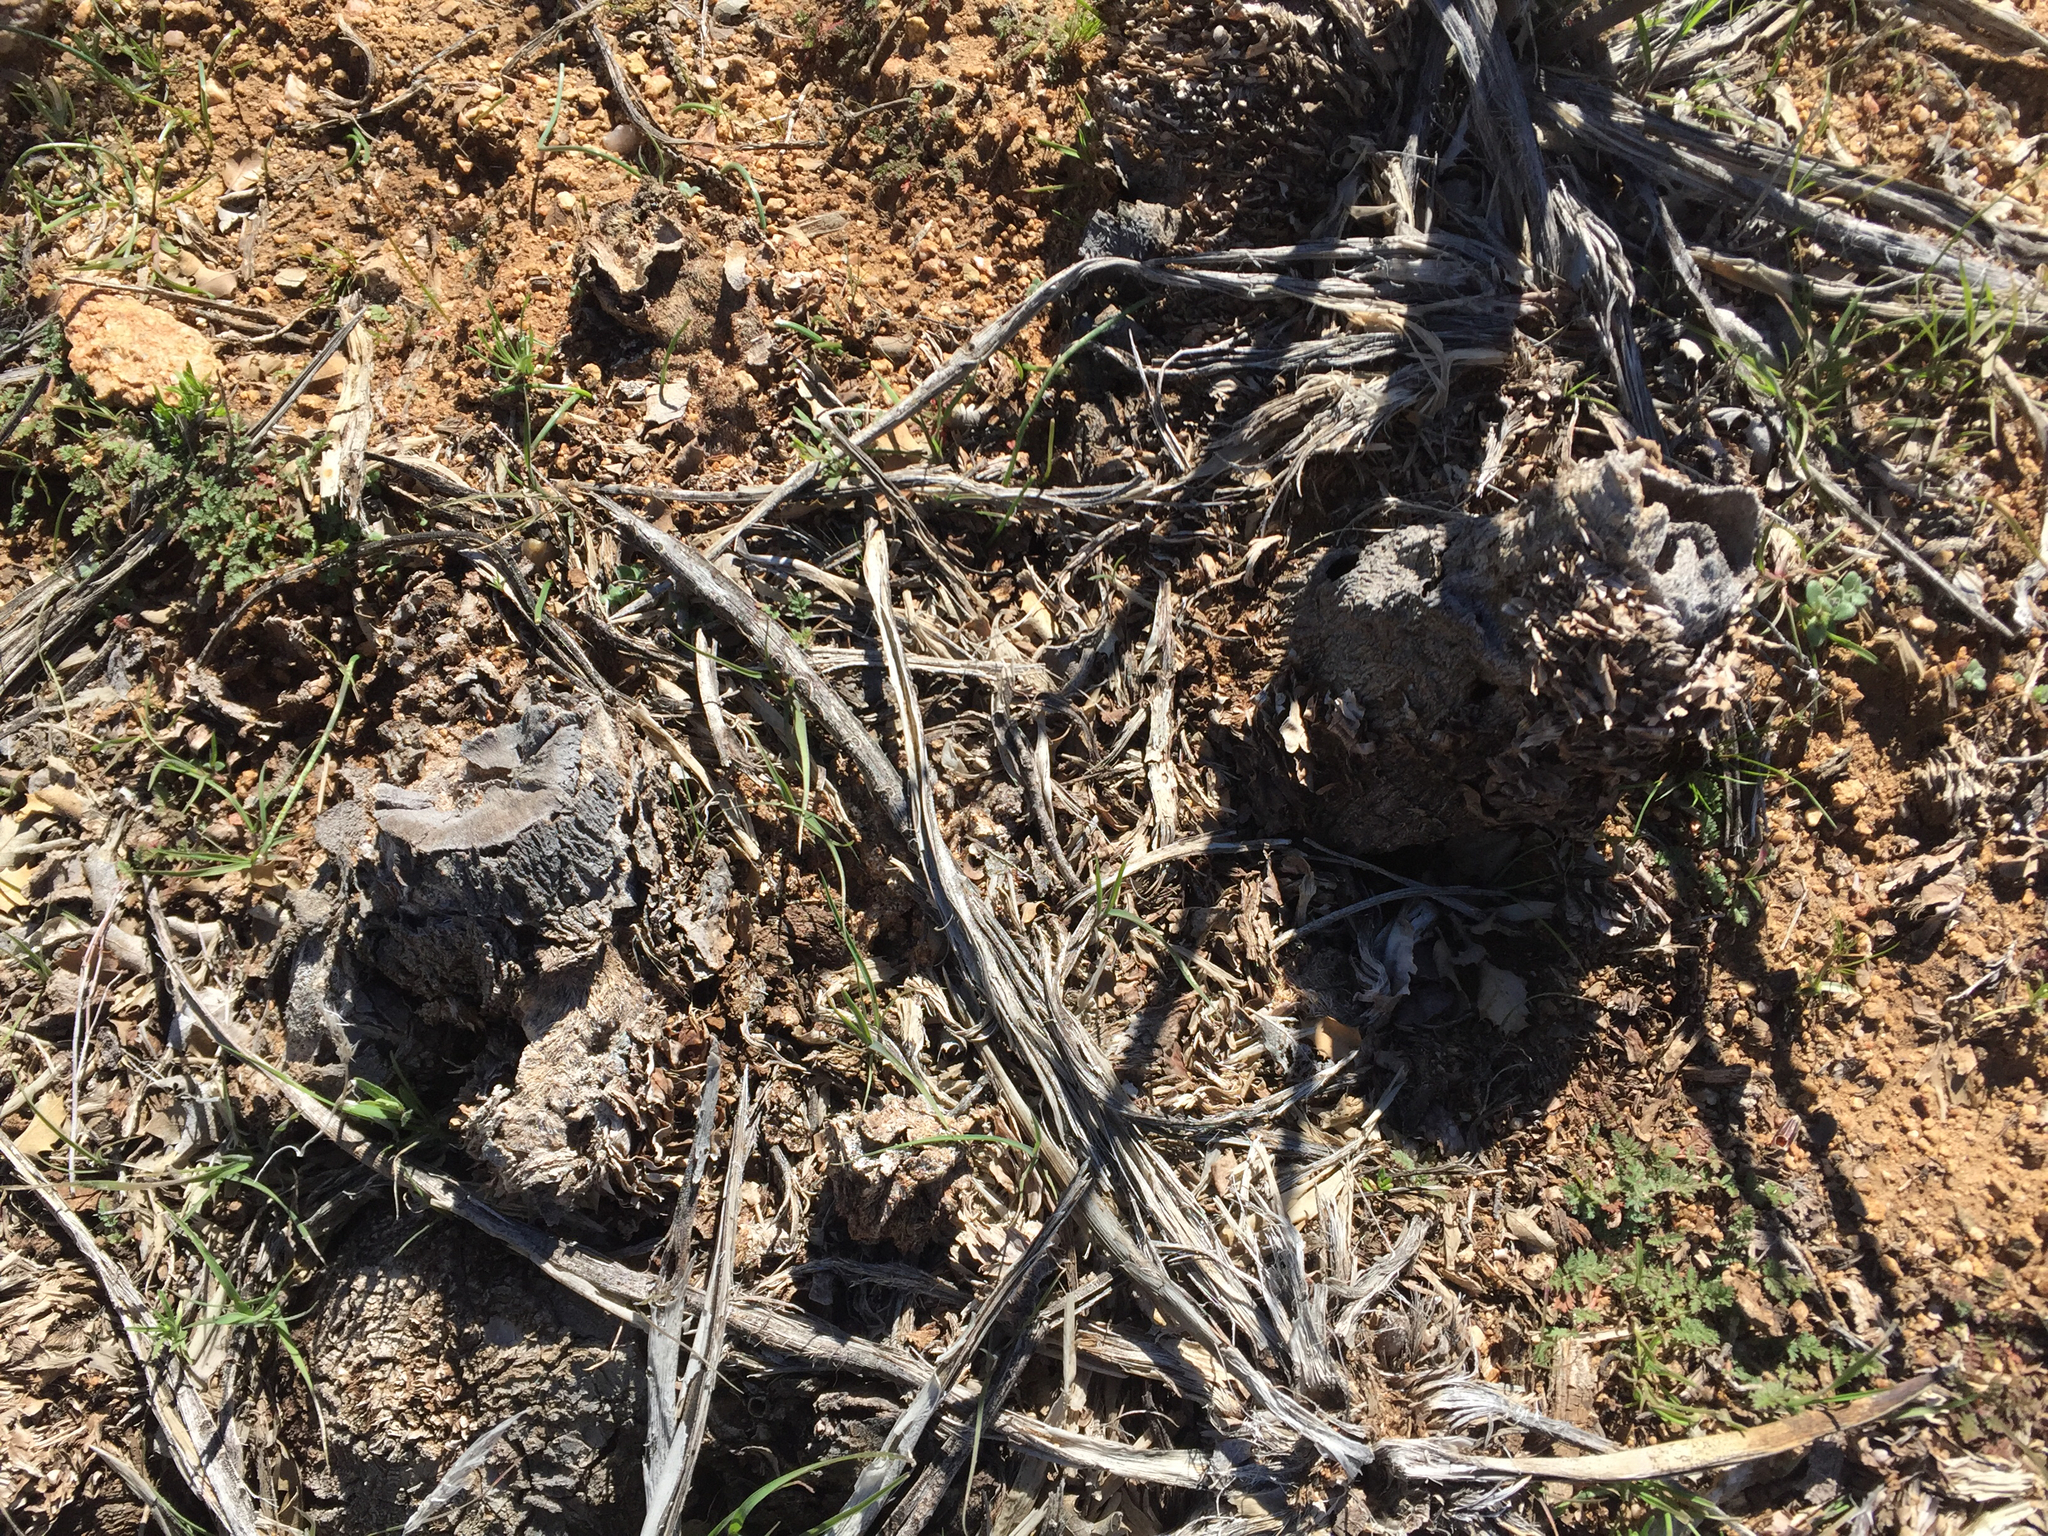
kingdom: Plantae
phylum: Tracheophyta
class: Liliopsida
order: Asparagales
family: Asparagaceae
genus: Yucca
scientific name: Yucca baccata
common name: Banana yucca
